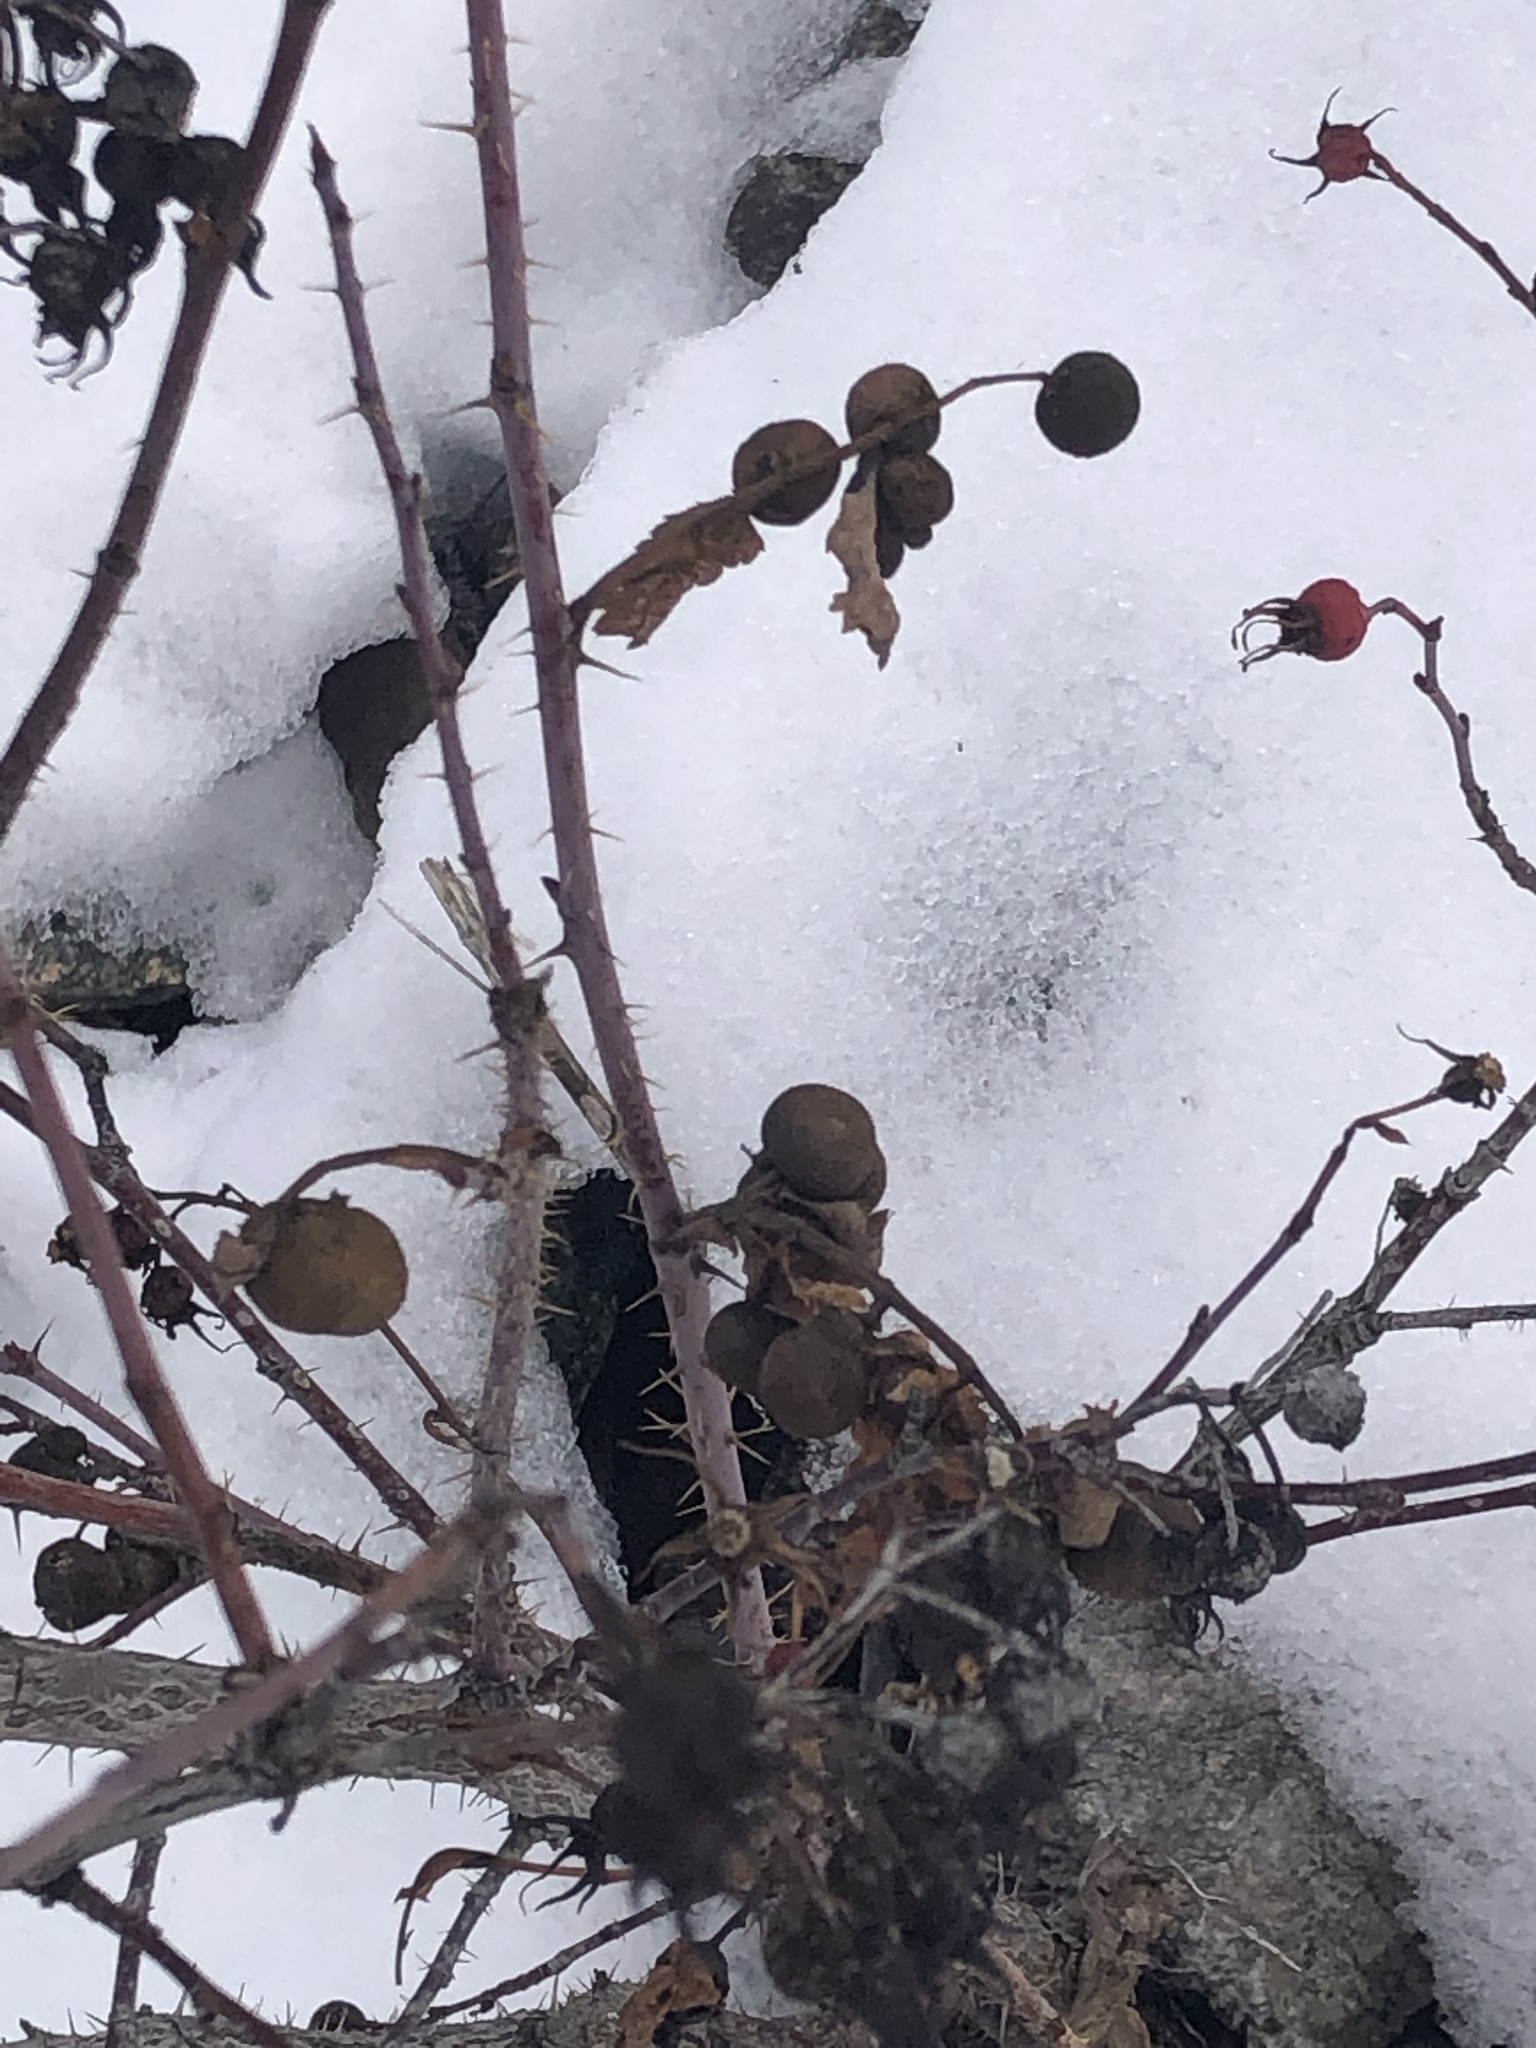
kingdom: Animalia
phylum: Arthropoda
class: Insecta
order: Hymenoptera
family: Cynipidae
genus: Diplolepis
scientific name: Diplolepis variabilis
